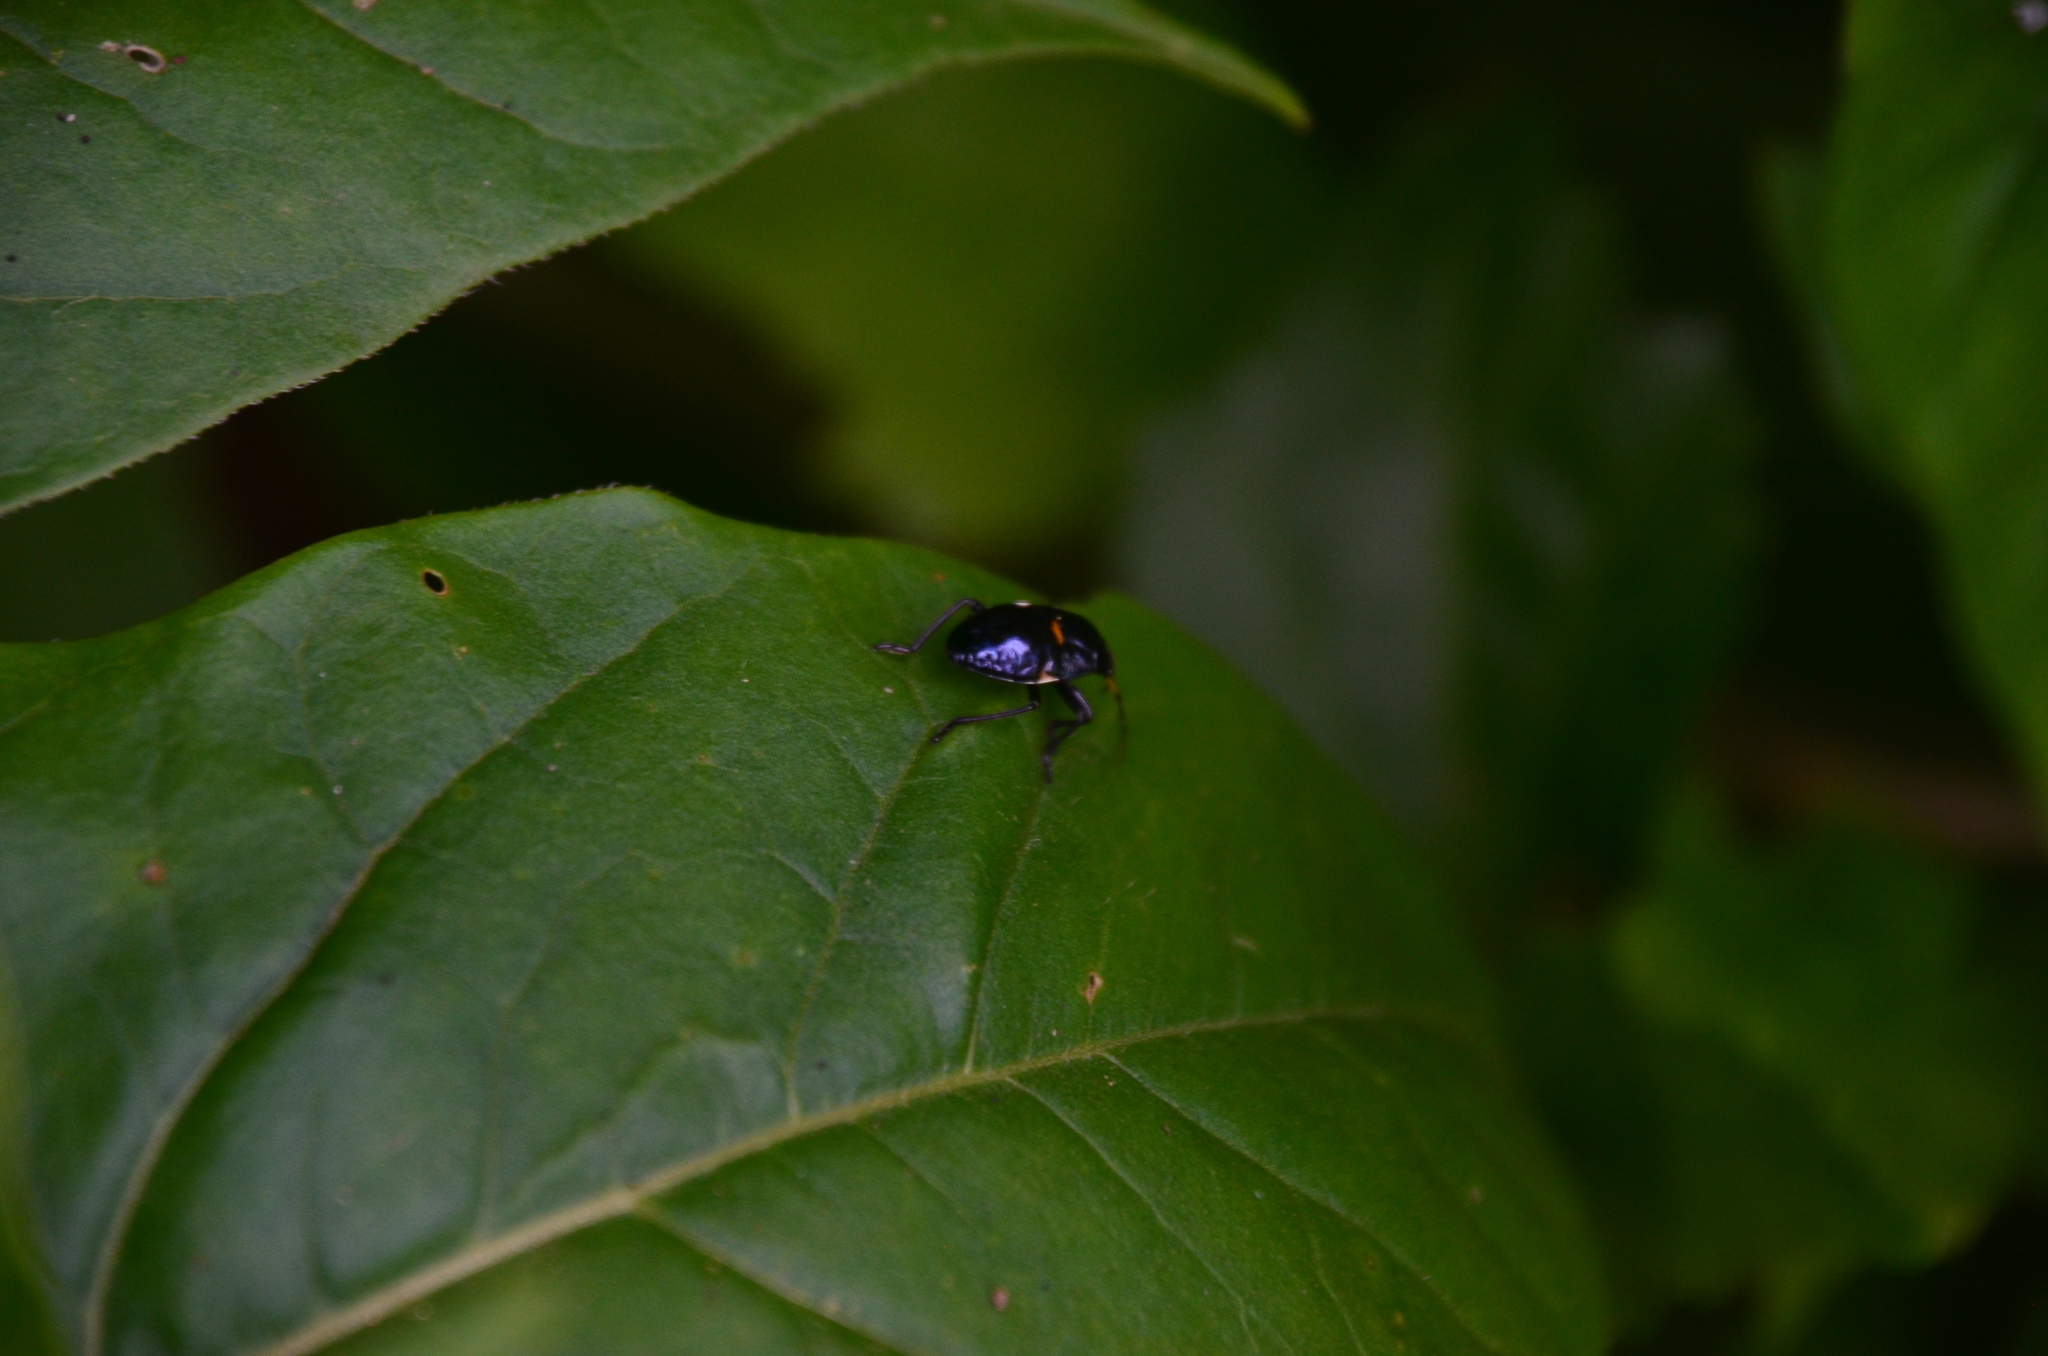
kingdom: Animalia
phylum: Arthropoda
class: Insecta
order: Hemiptera
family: Largidae
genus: Largus
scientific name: Largus fasciatus
